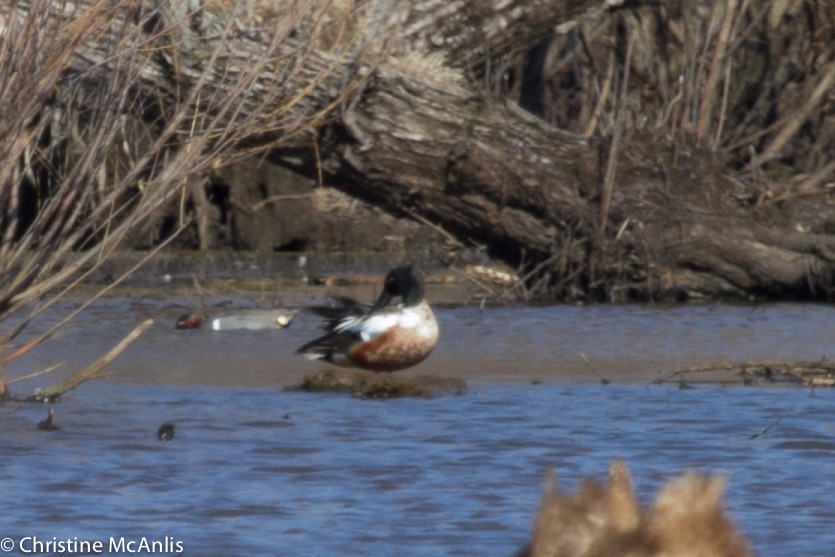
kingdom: Animalia
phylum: Chordata
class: Aves
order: Anseriformes
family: Anatidae
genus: Spatula
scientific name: Spatula clypeata
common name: Northern shoveler
